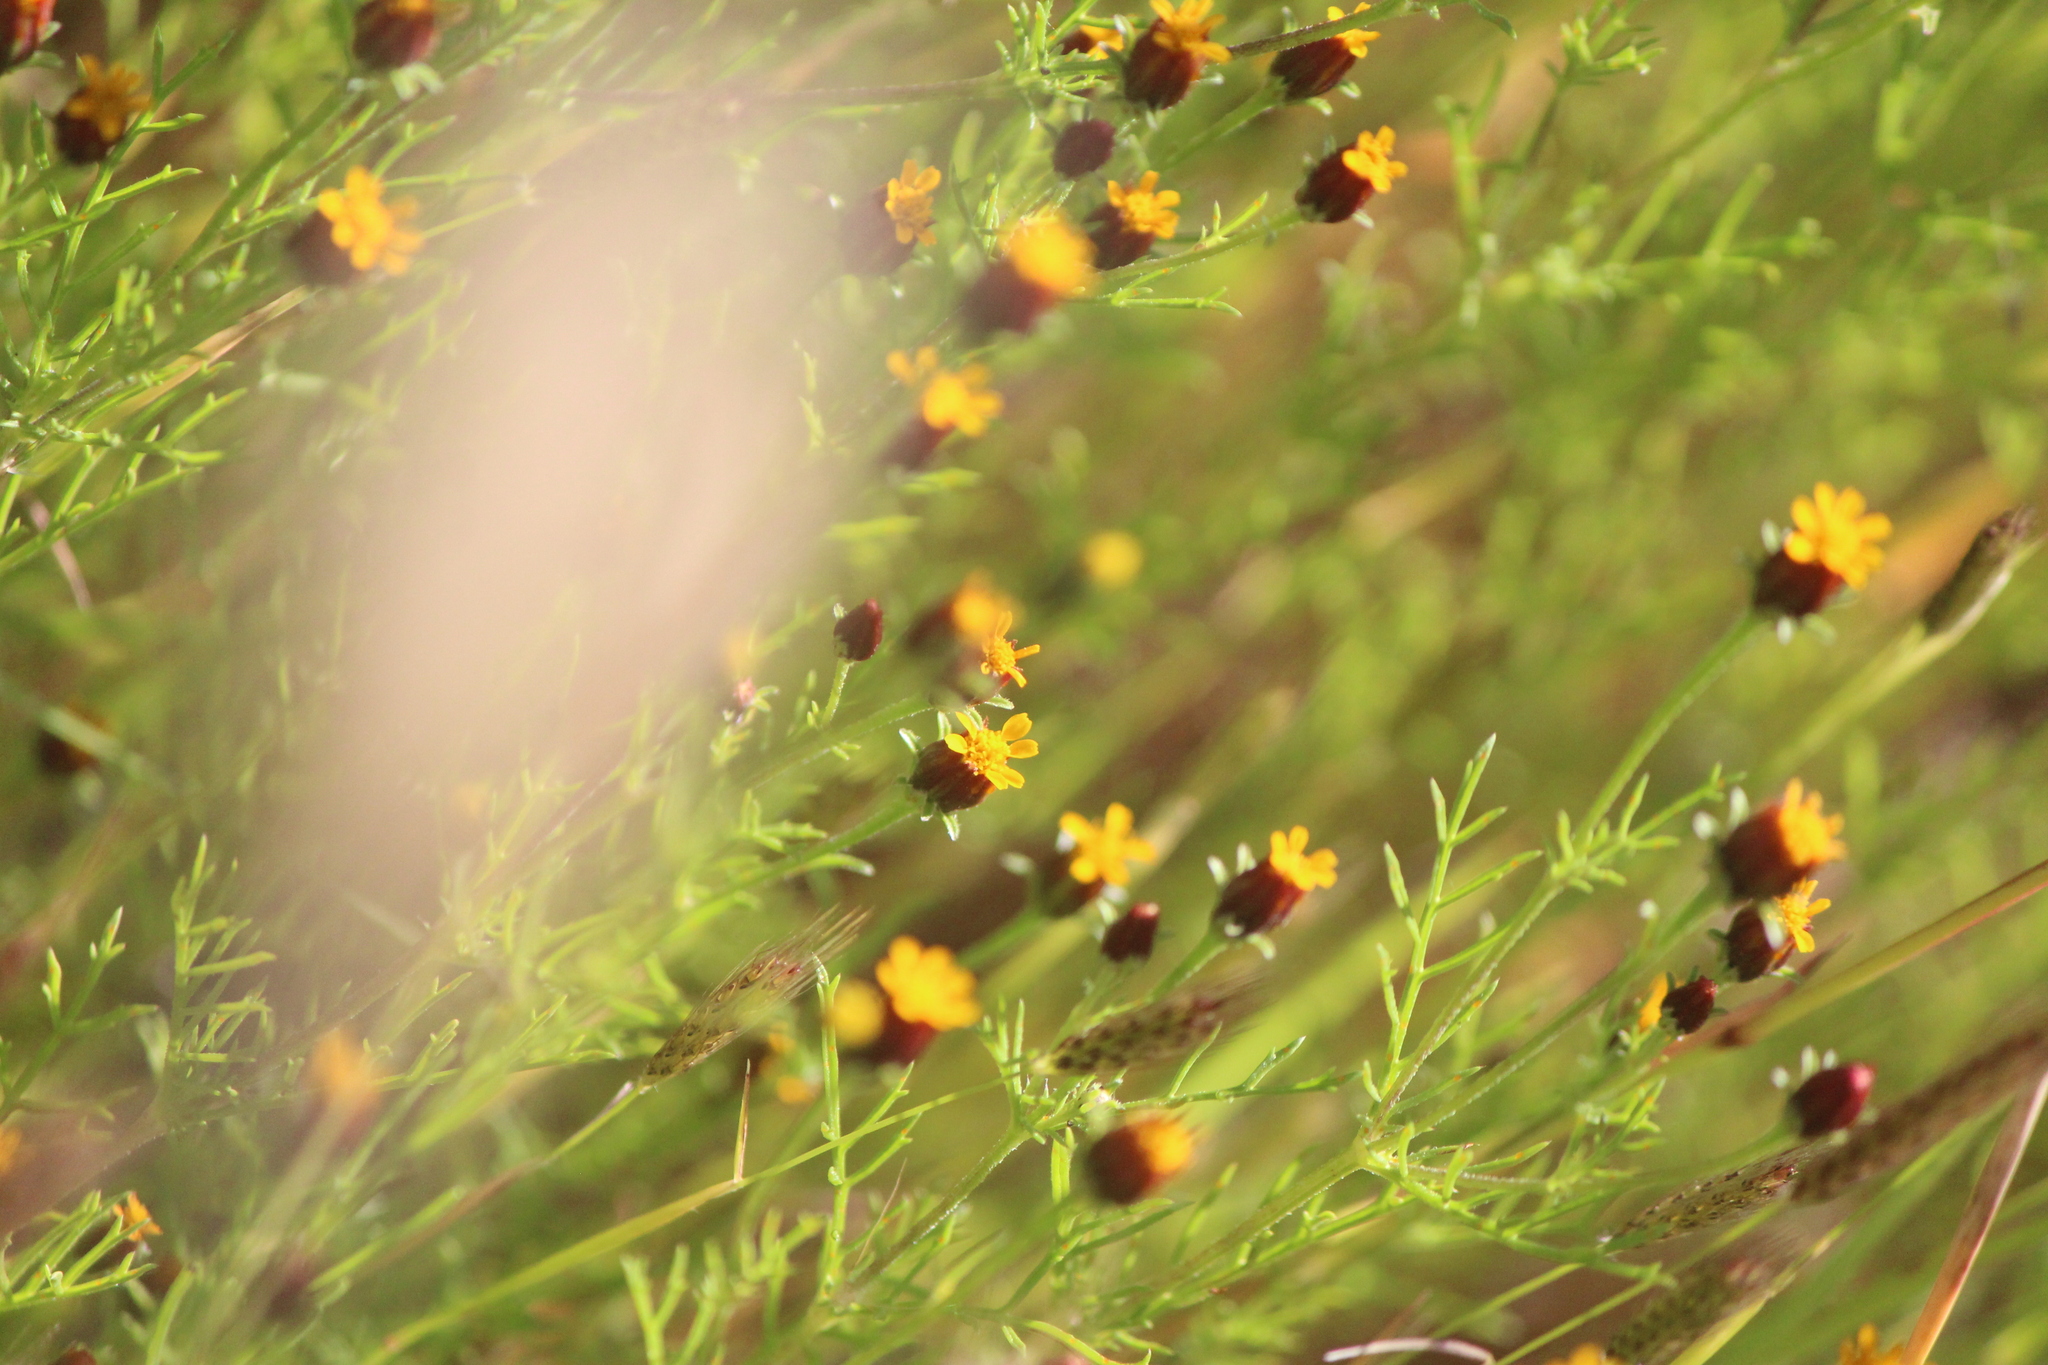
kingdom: Plantae
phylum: Tracheophyta
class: Magnoliopsida
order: Asterales
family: Asteraceae
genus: Dyssodia
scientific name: Dyssodia papposa
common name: Dogweed
